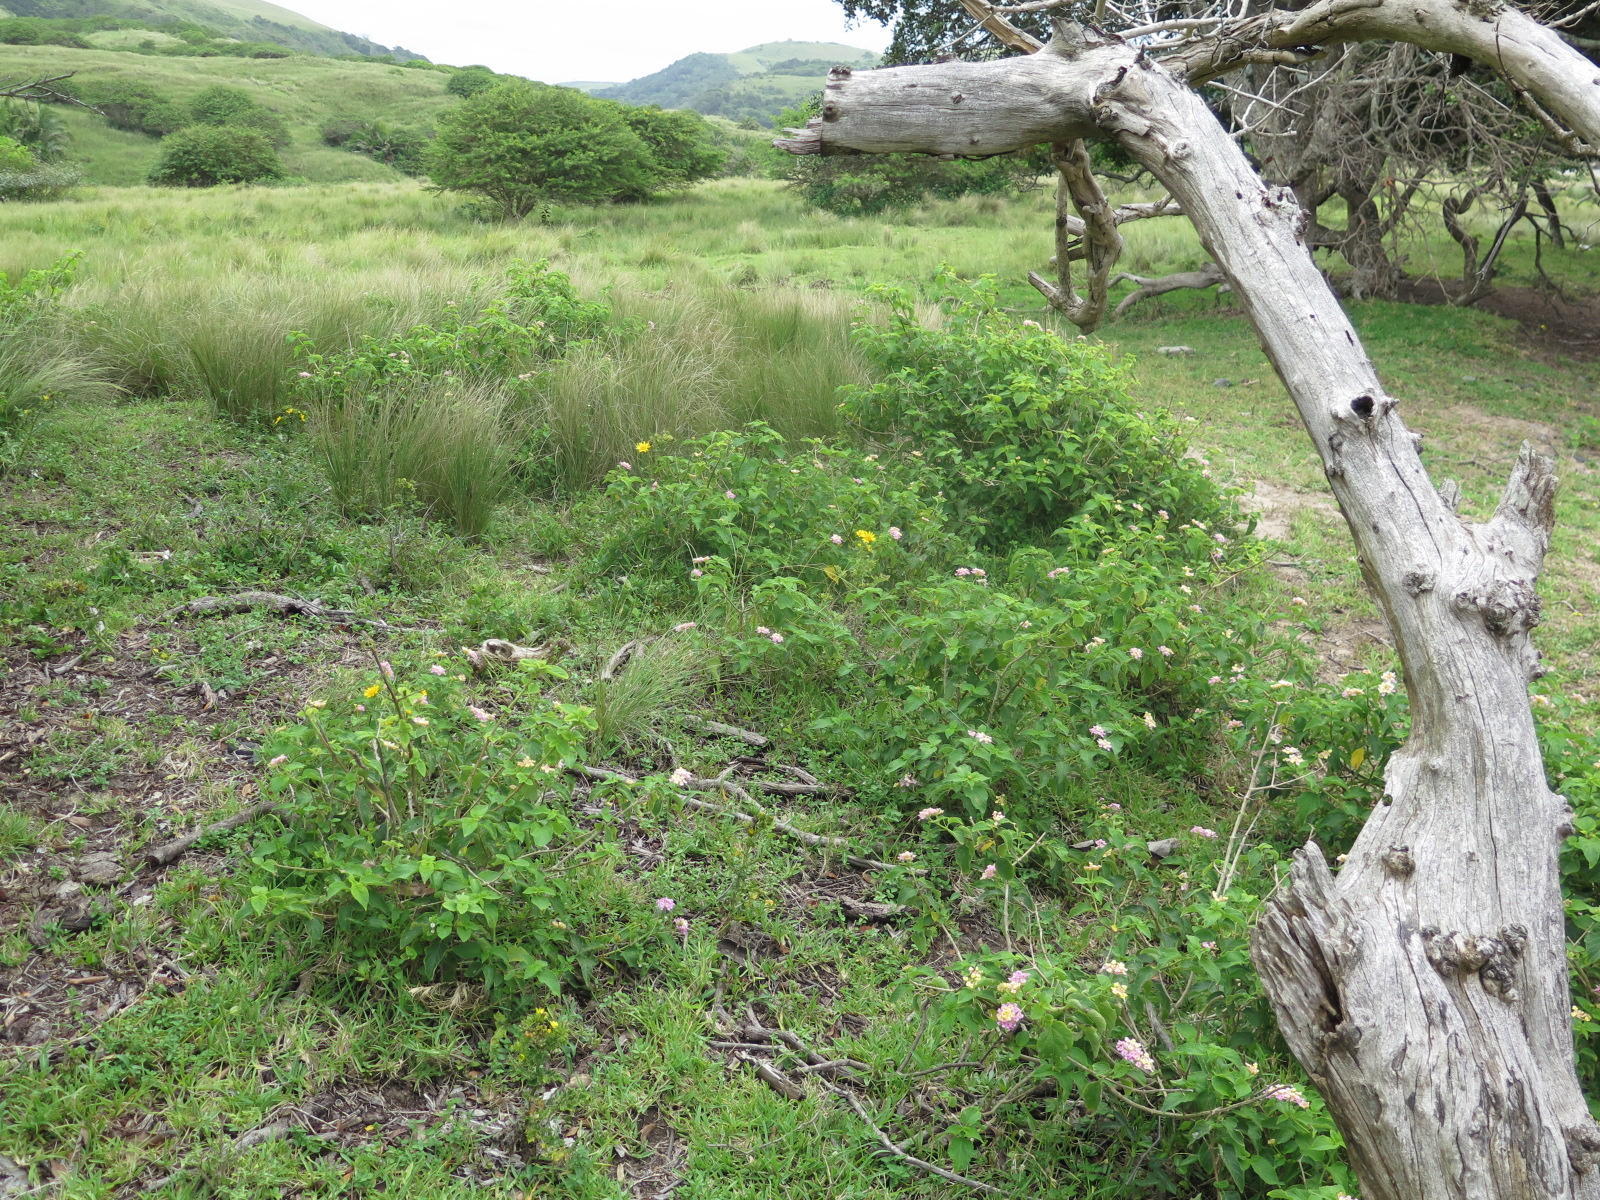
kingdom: Plantae
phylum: Tracheophyta
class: Magnoliopsida
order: Lamiales
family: Verbenaceae
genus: Lantana
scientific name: Lantana camara
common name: Lantana
